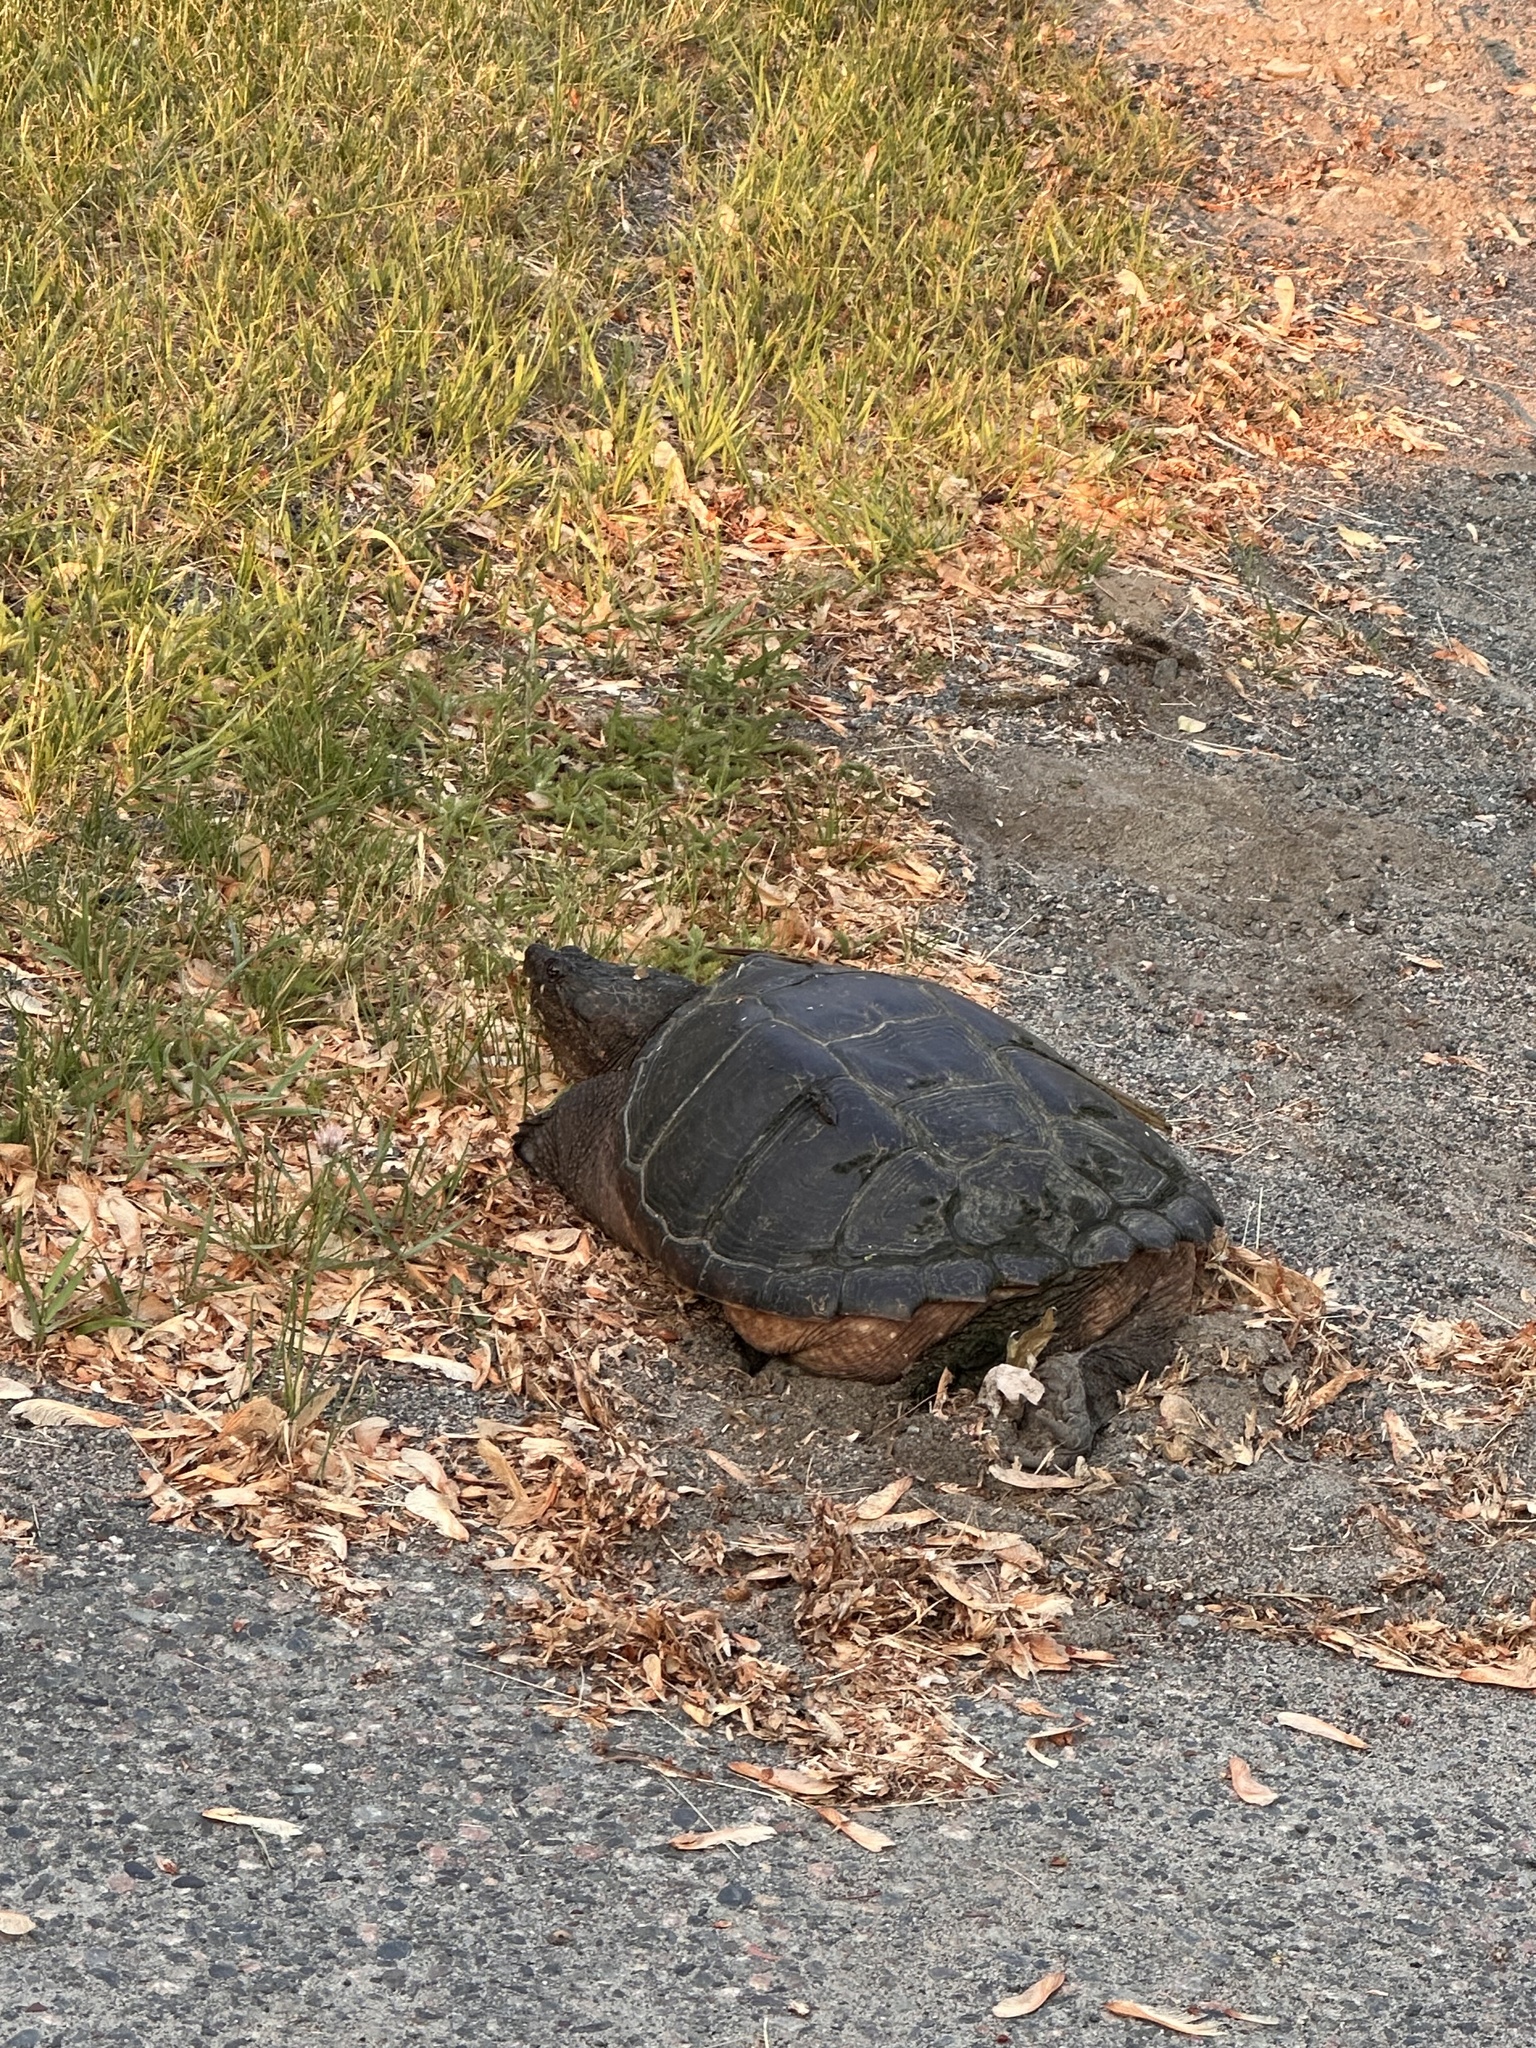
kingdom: Animalia
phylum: Chordata
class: Testudines
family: Chelydridae
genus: Chelydra
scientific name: Chelydra serpentina
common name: Common snapping turtle
